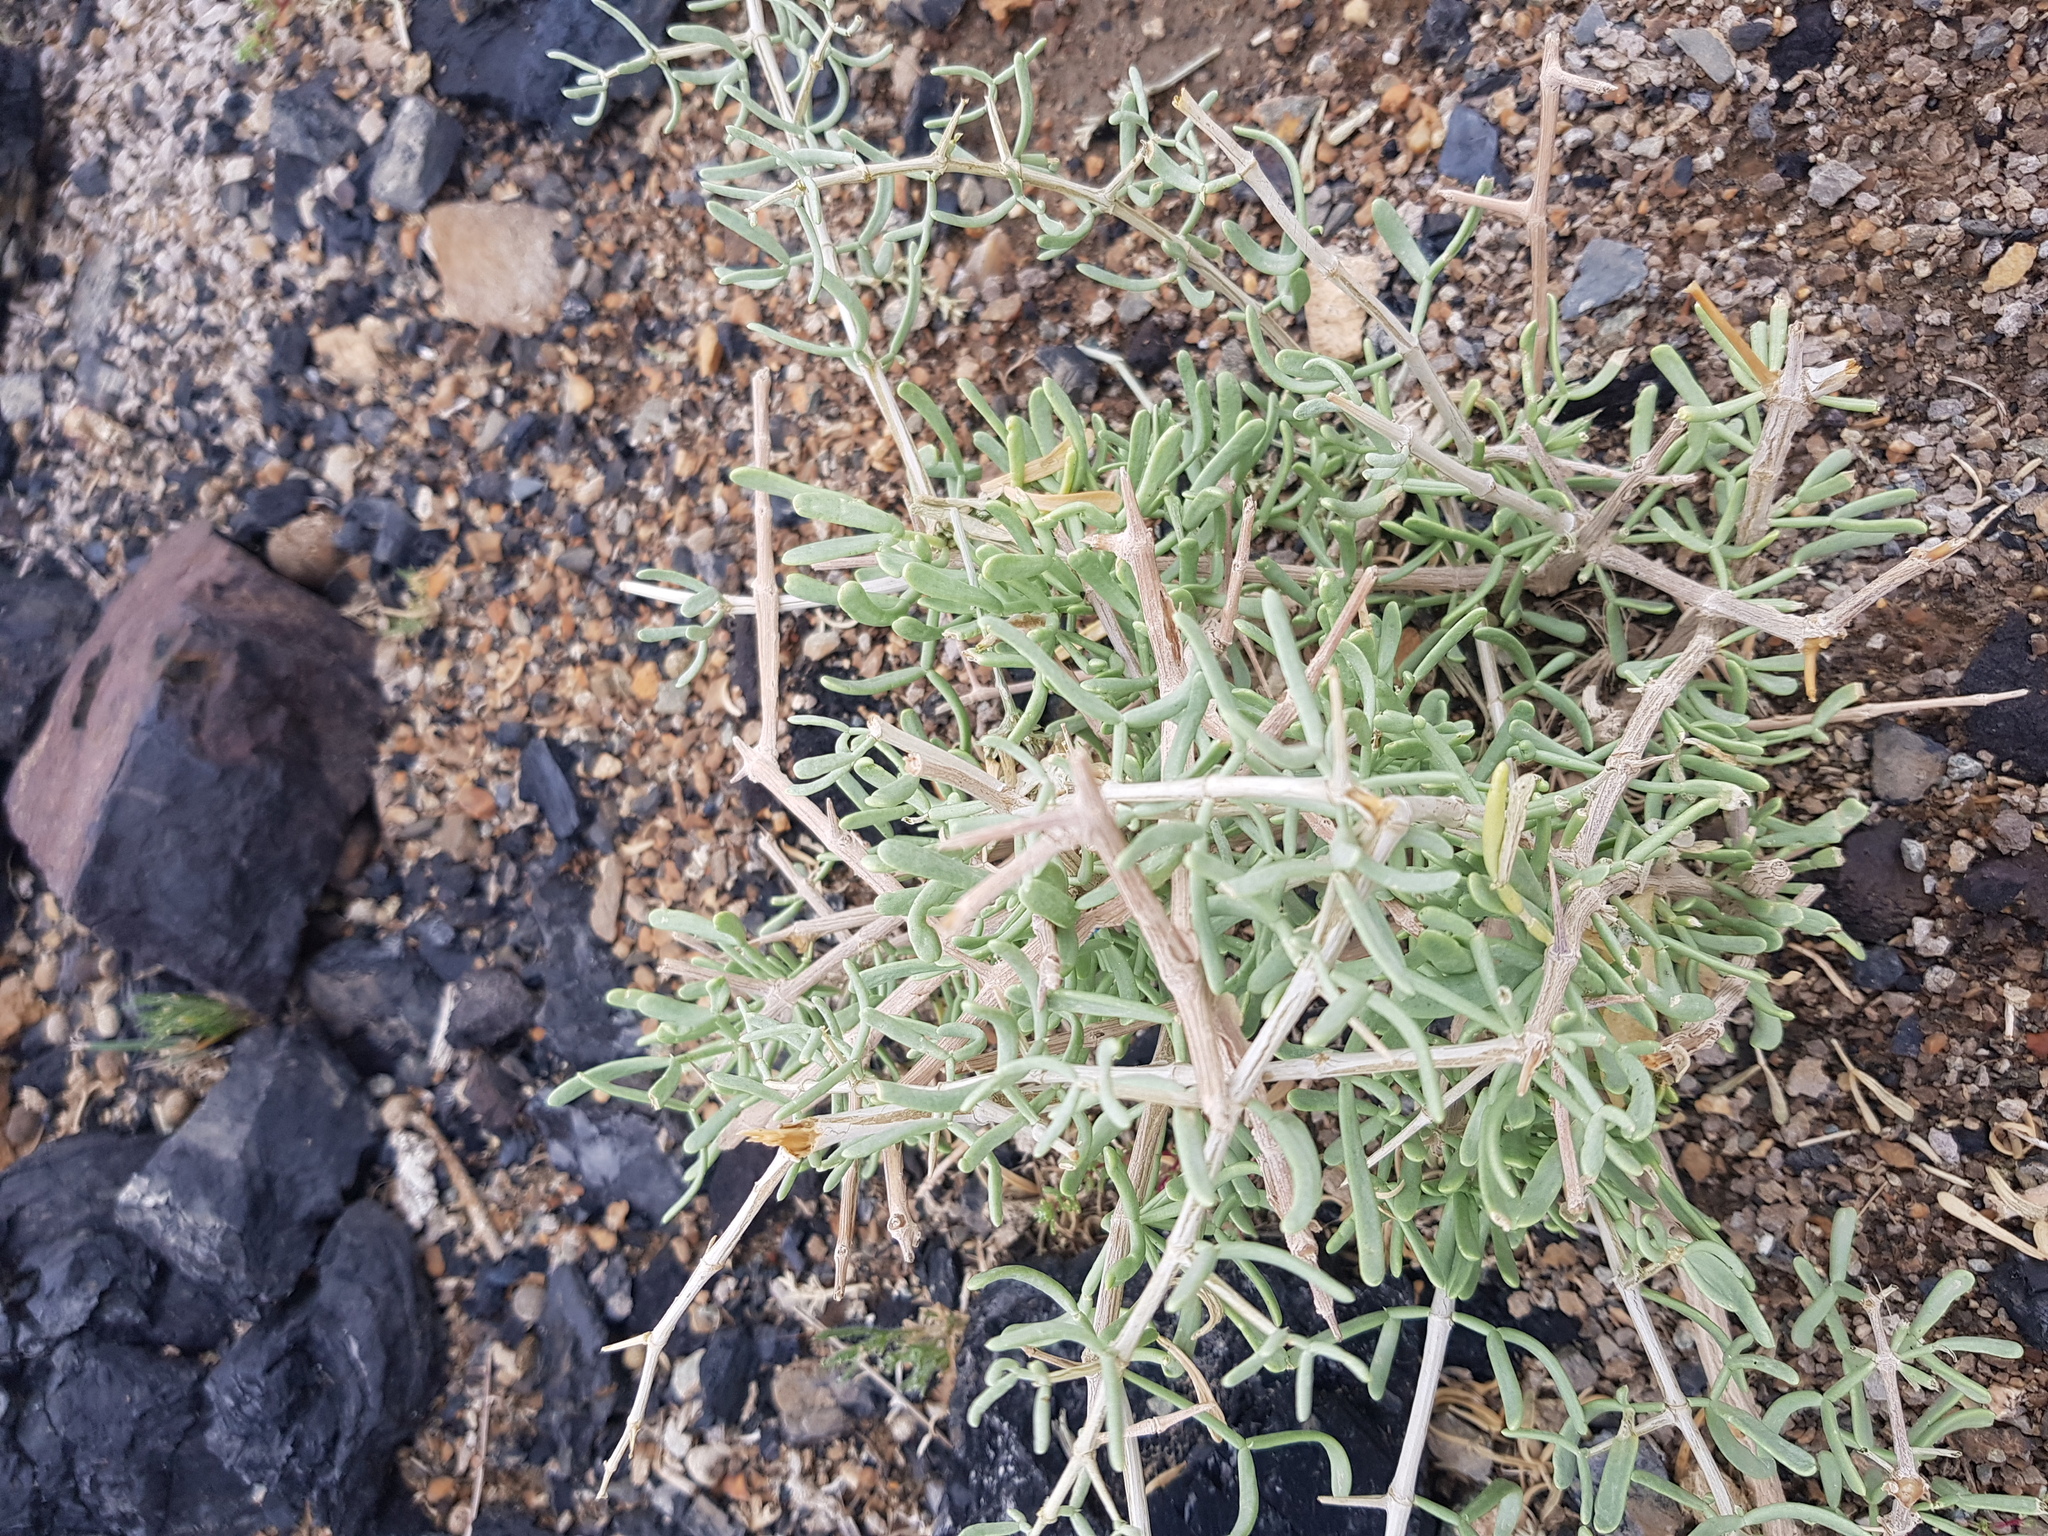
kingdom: Plantae
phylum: Tracheophyta
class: Magnoliopsida
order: Zygophyllales
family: Zygophyllaceae
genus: Zygophyllum
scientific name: Zygophyllum xanthoxylum
